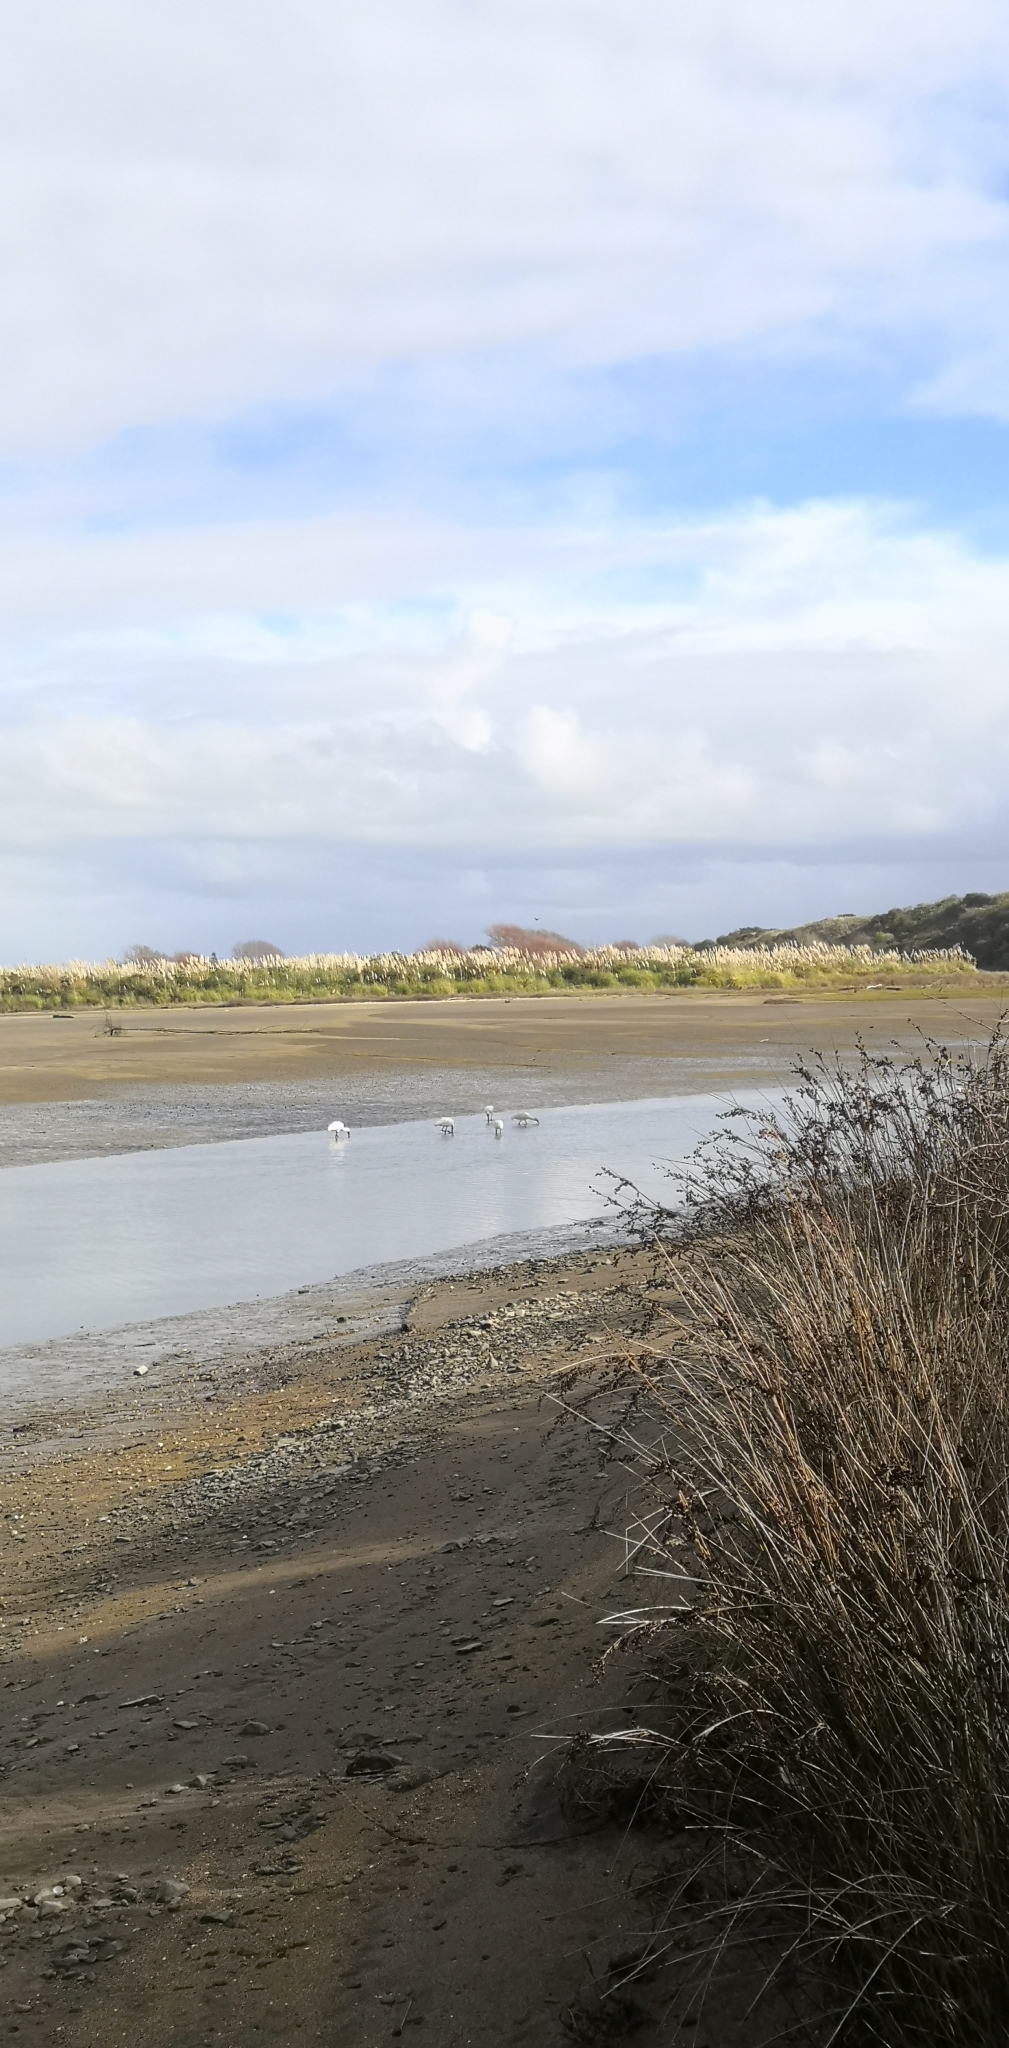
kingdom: Animalia
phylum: Chordata
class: Aves
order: Pelecaniformes
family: Threskiornithidae
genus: Platalea
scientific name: Platalea regia
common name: Royal spoonbill
